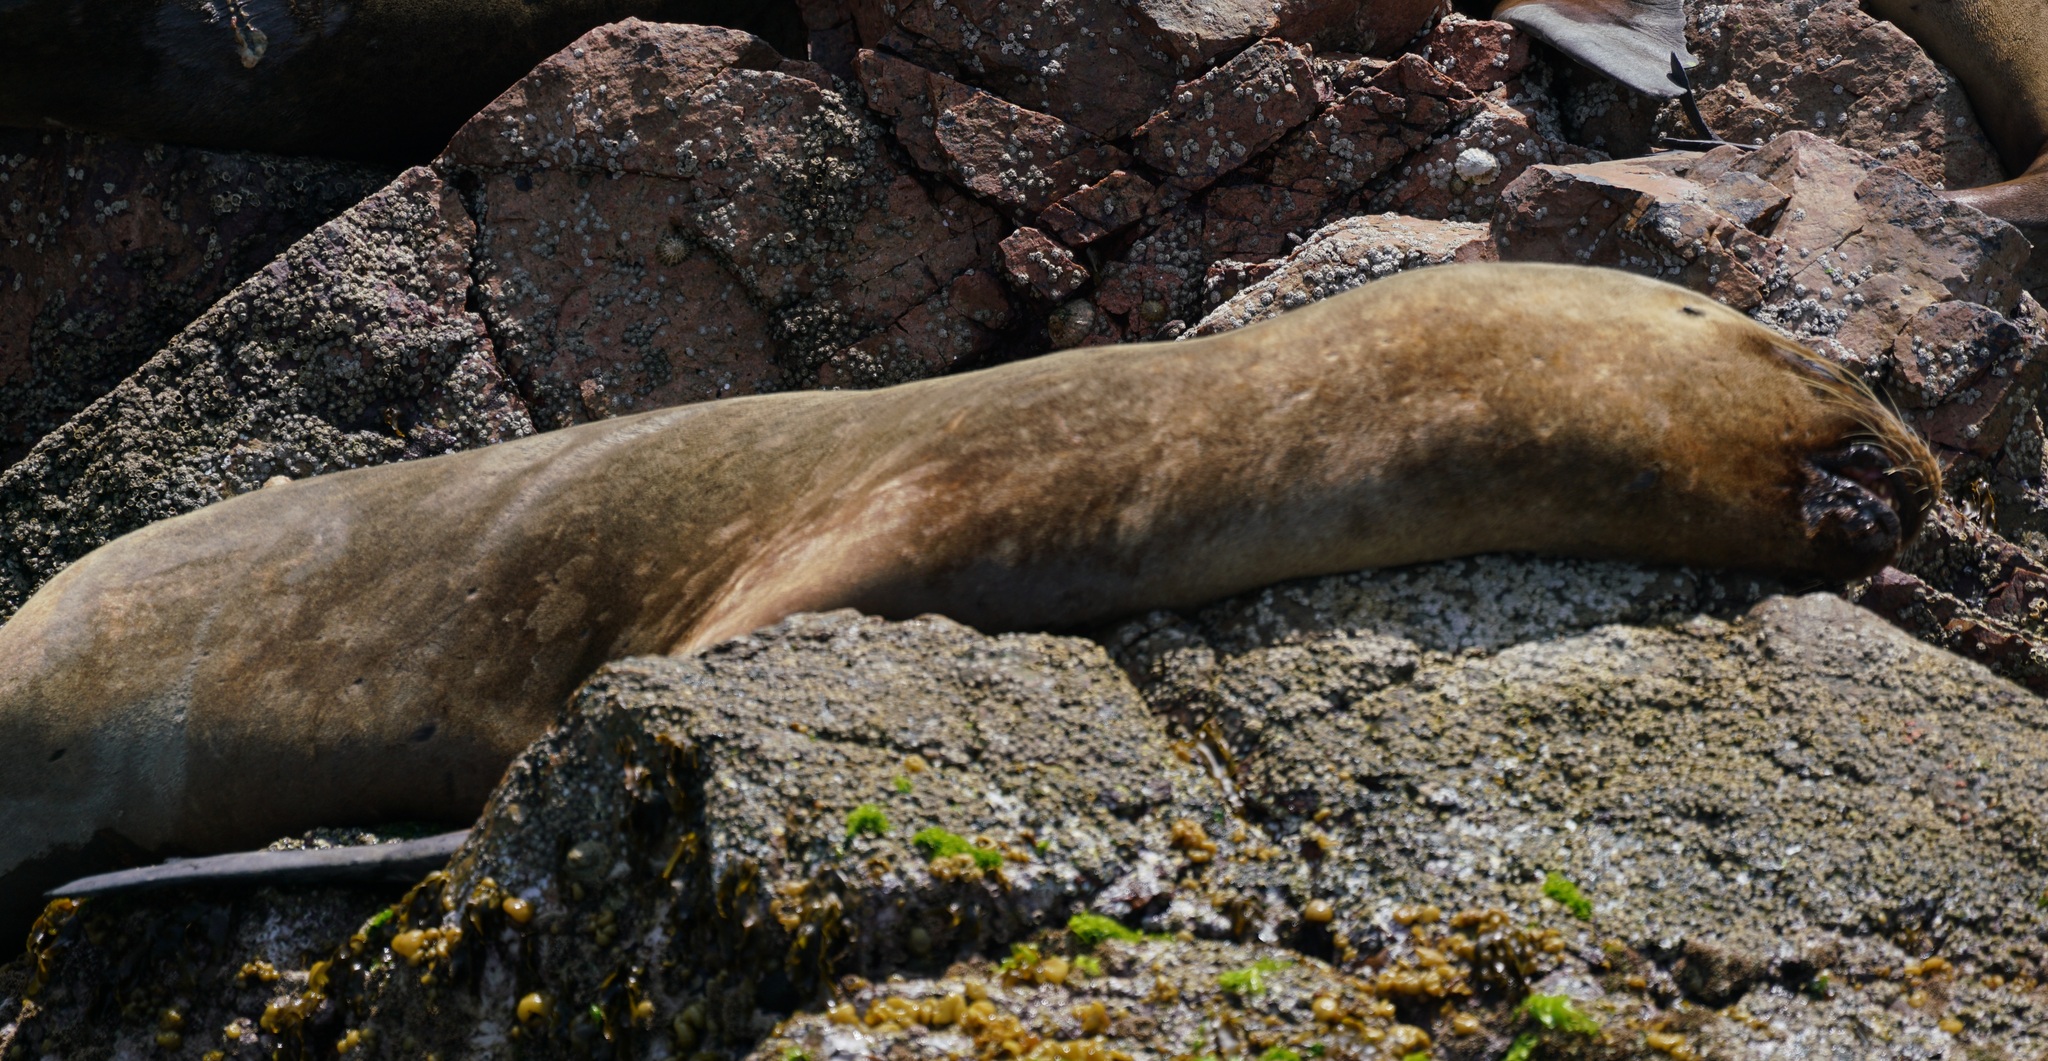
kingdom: Animalia
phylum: Chordata
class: Mammalia
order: Carnivora
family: Otariidae
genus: Otaria
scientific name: Otaria byronia
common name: South american sea lion
